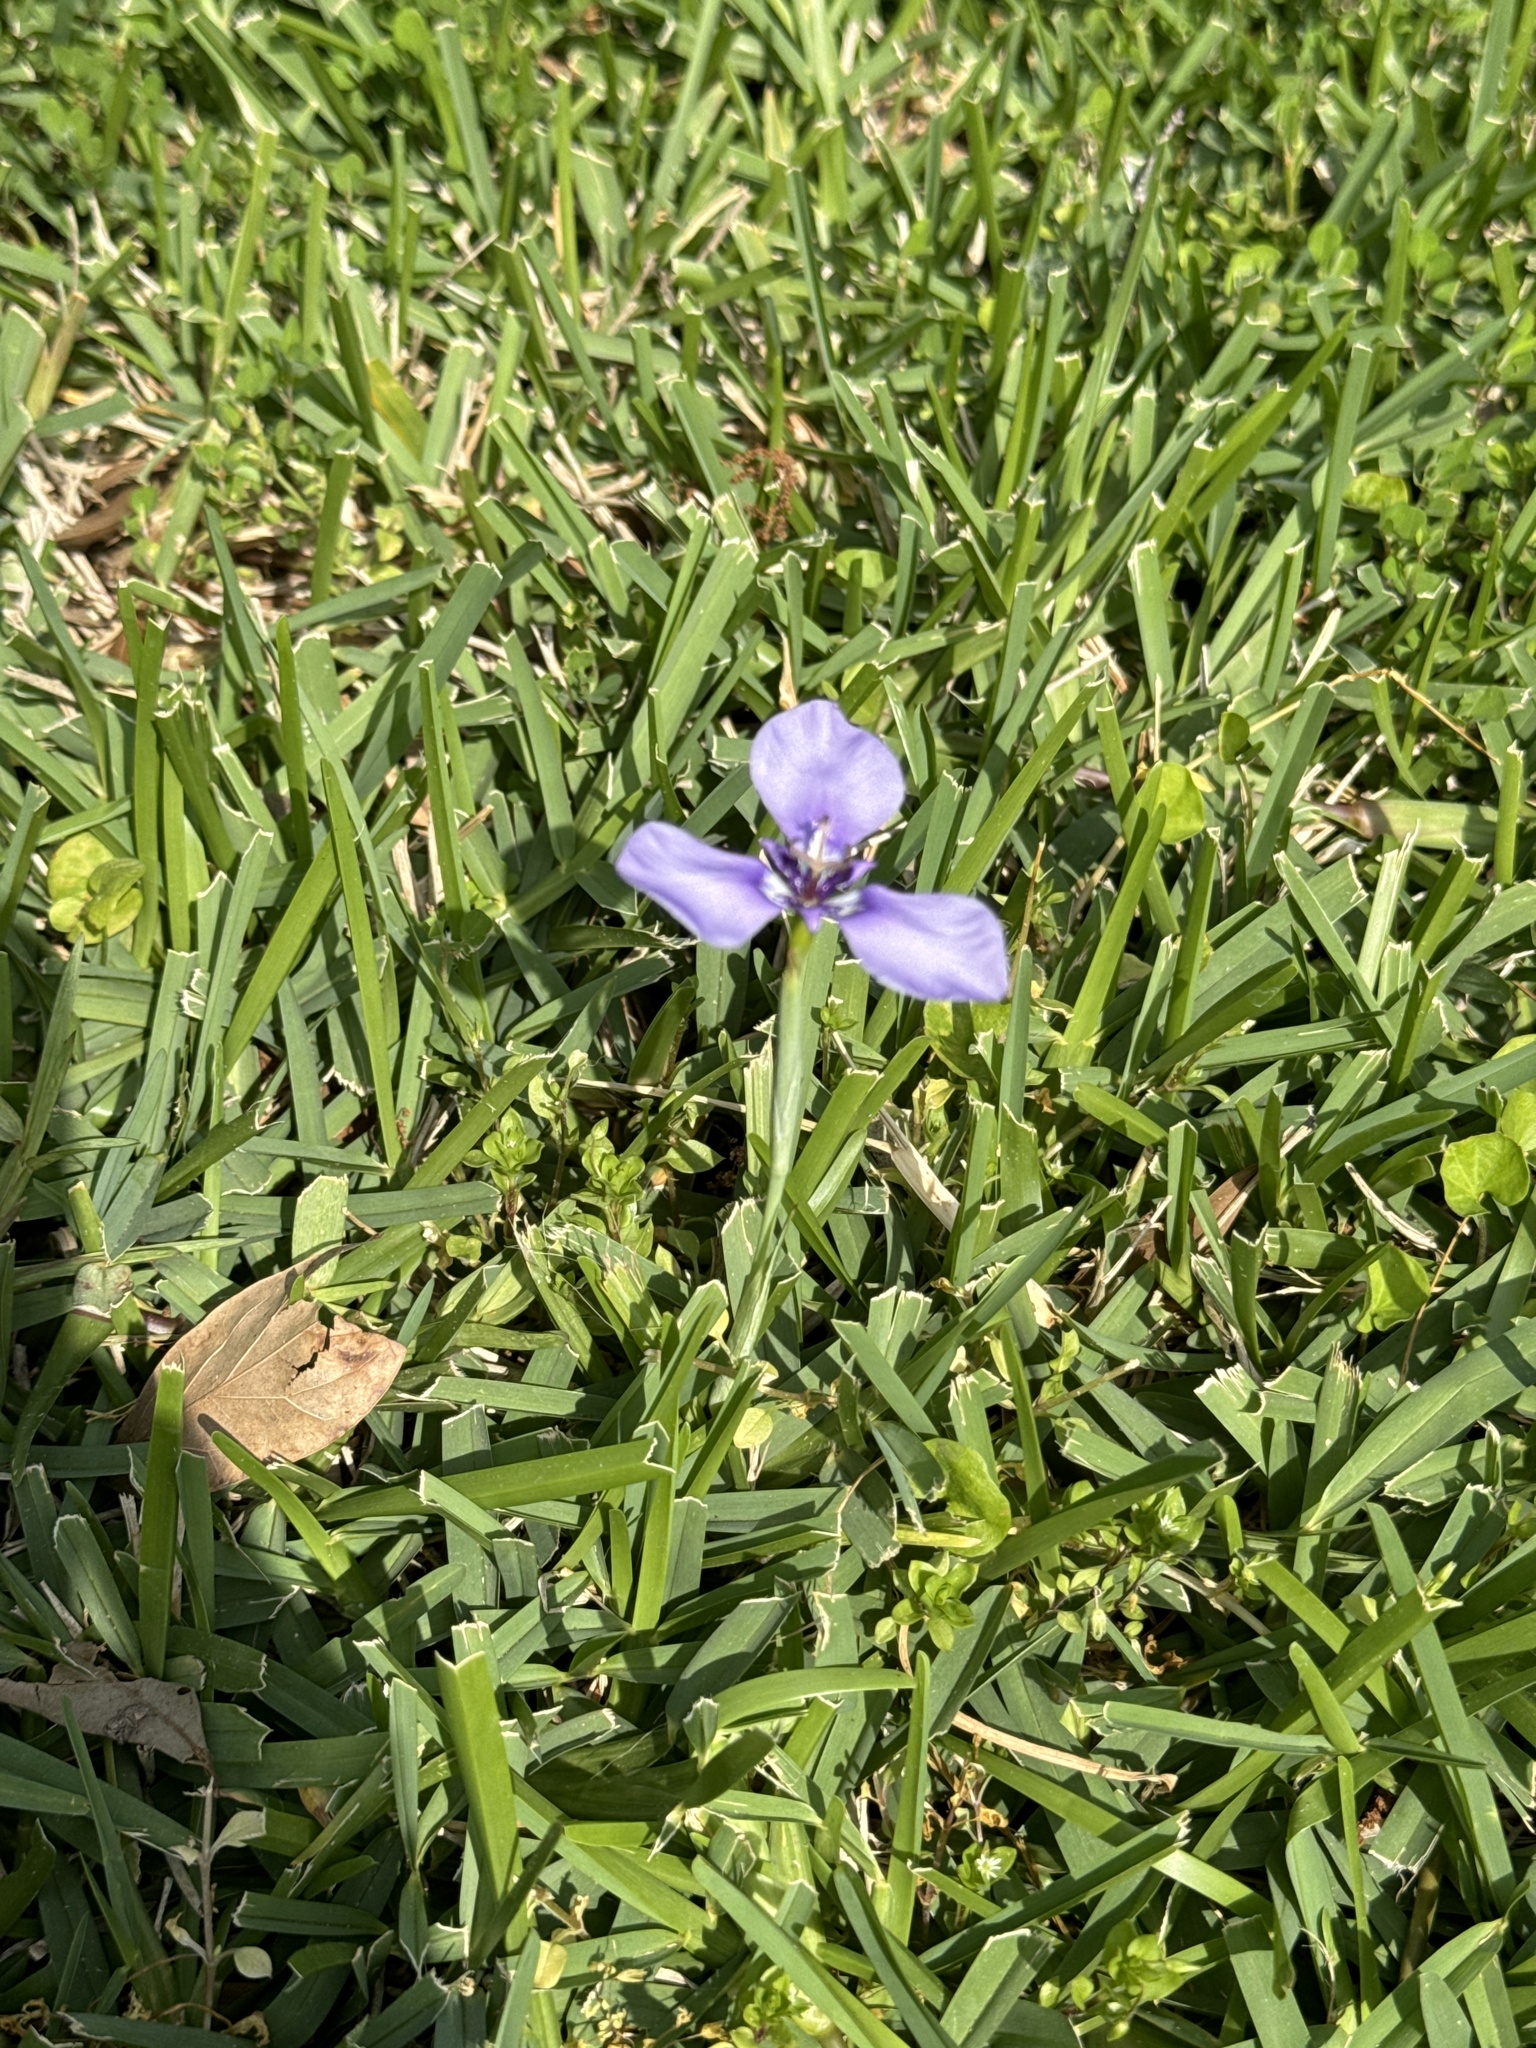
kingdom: Plantae
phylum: Tracheophyta
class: Liliopsida
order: Asparagales
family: Iridaceae
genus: Herbertia
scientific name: Herbertia lahue
